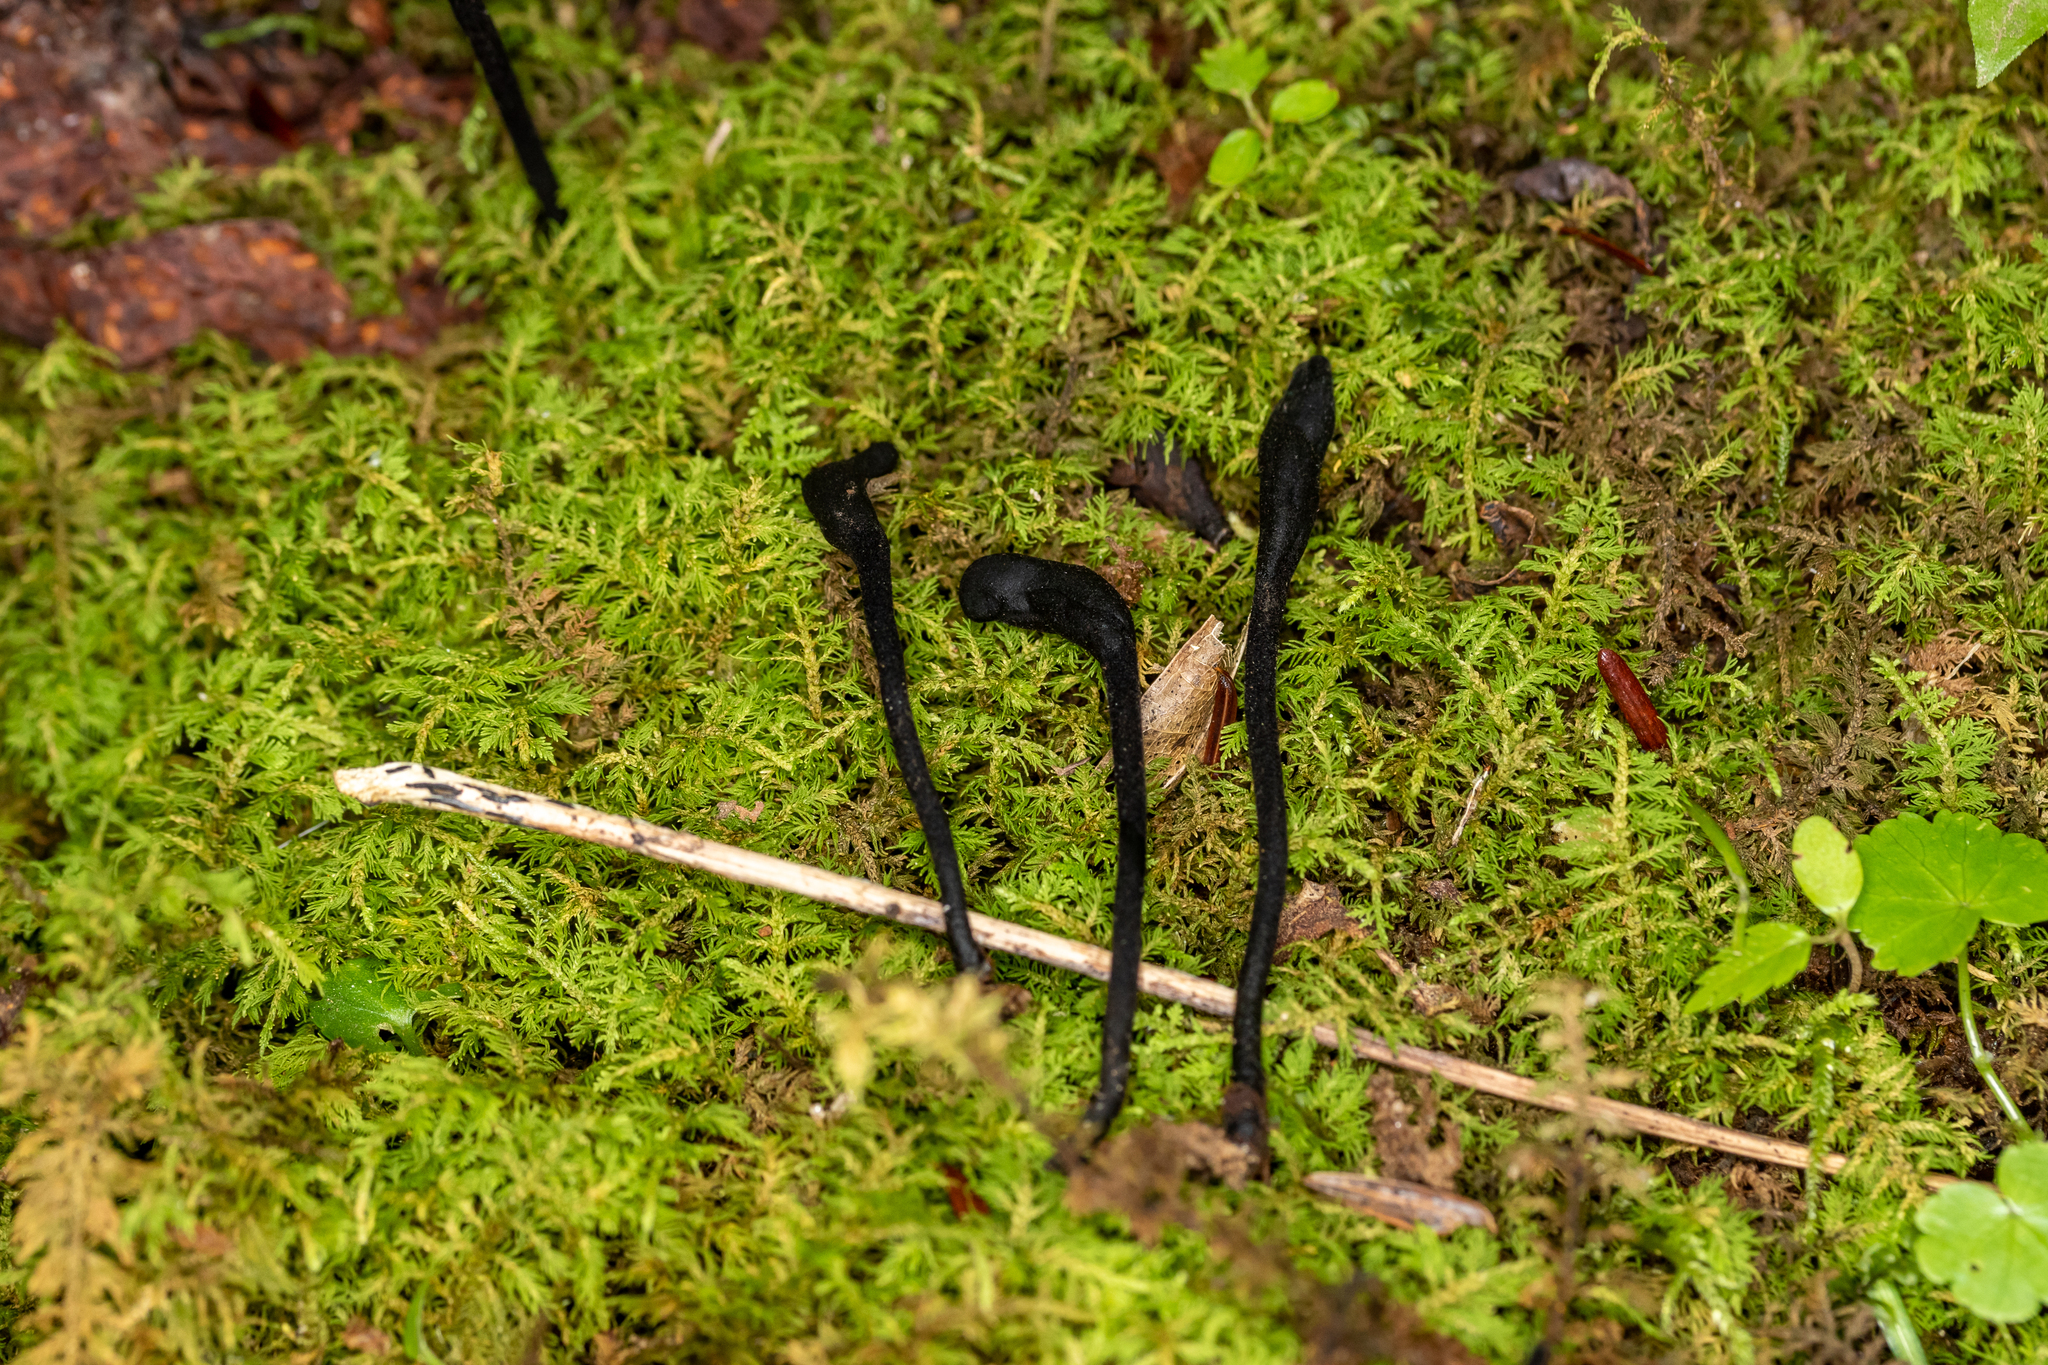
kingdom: Fungi
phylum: Ascomycota
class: Geoglossomycetes
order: Geoglossales
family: Geoglossaceae
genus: Trichoglossum
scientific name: Trichoglossum hirsutum
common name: Hairy earthtongue
